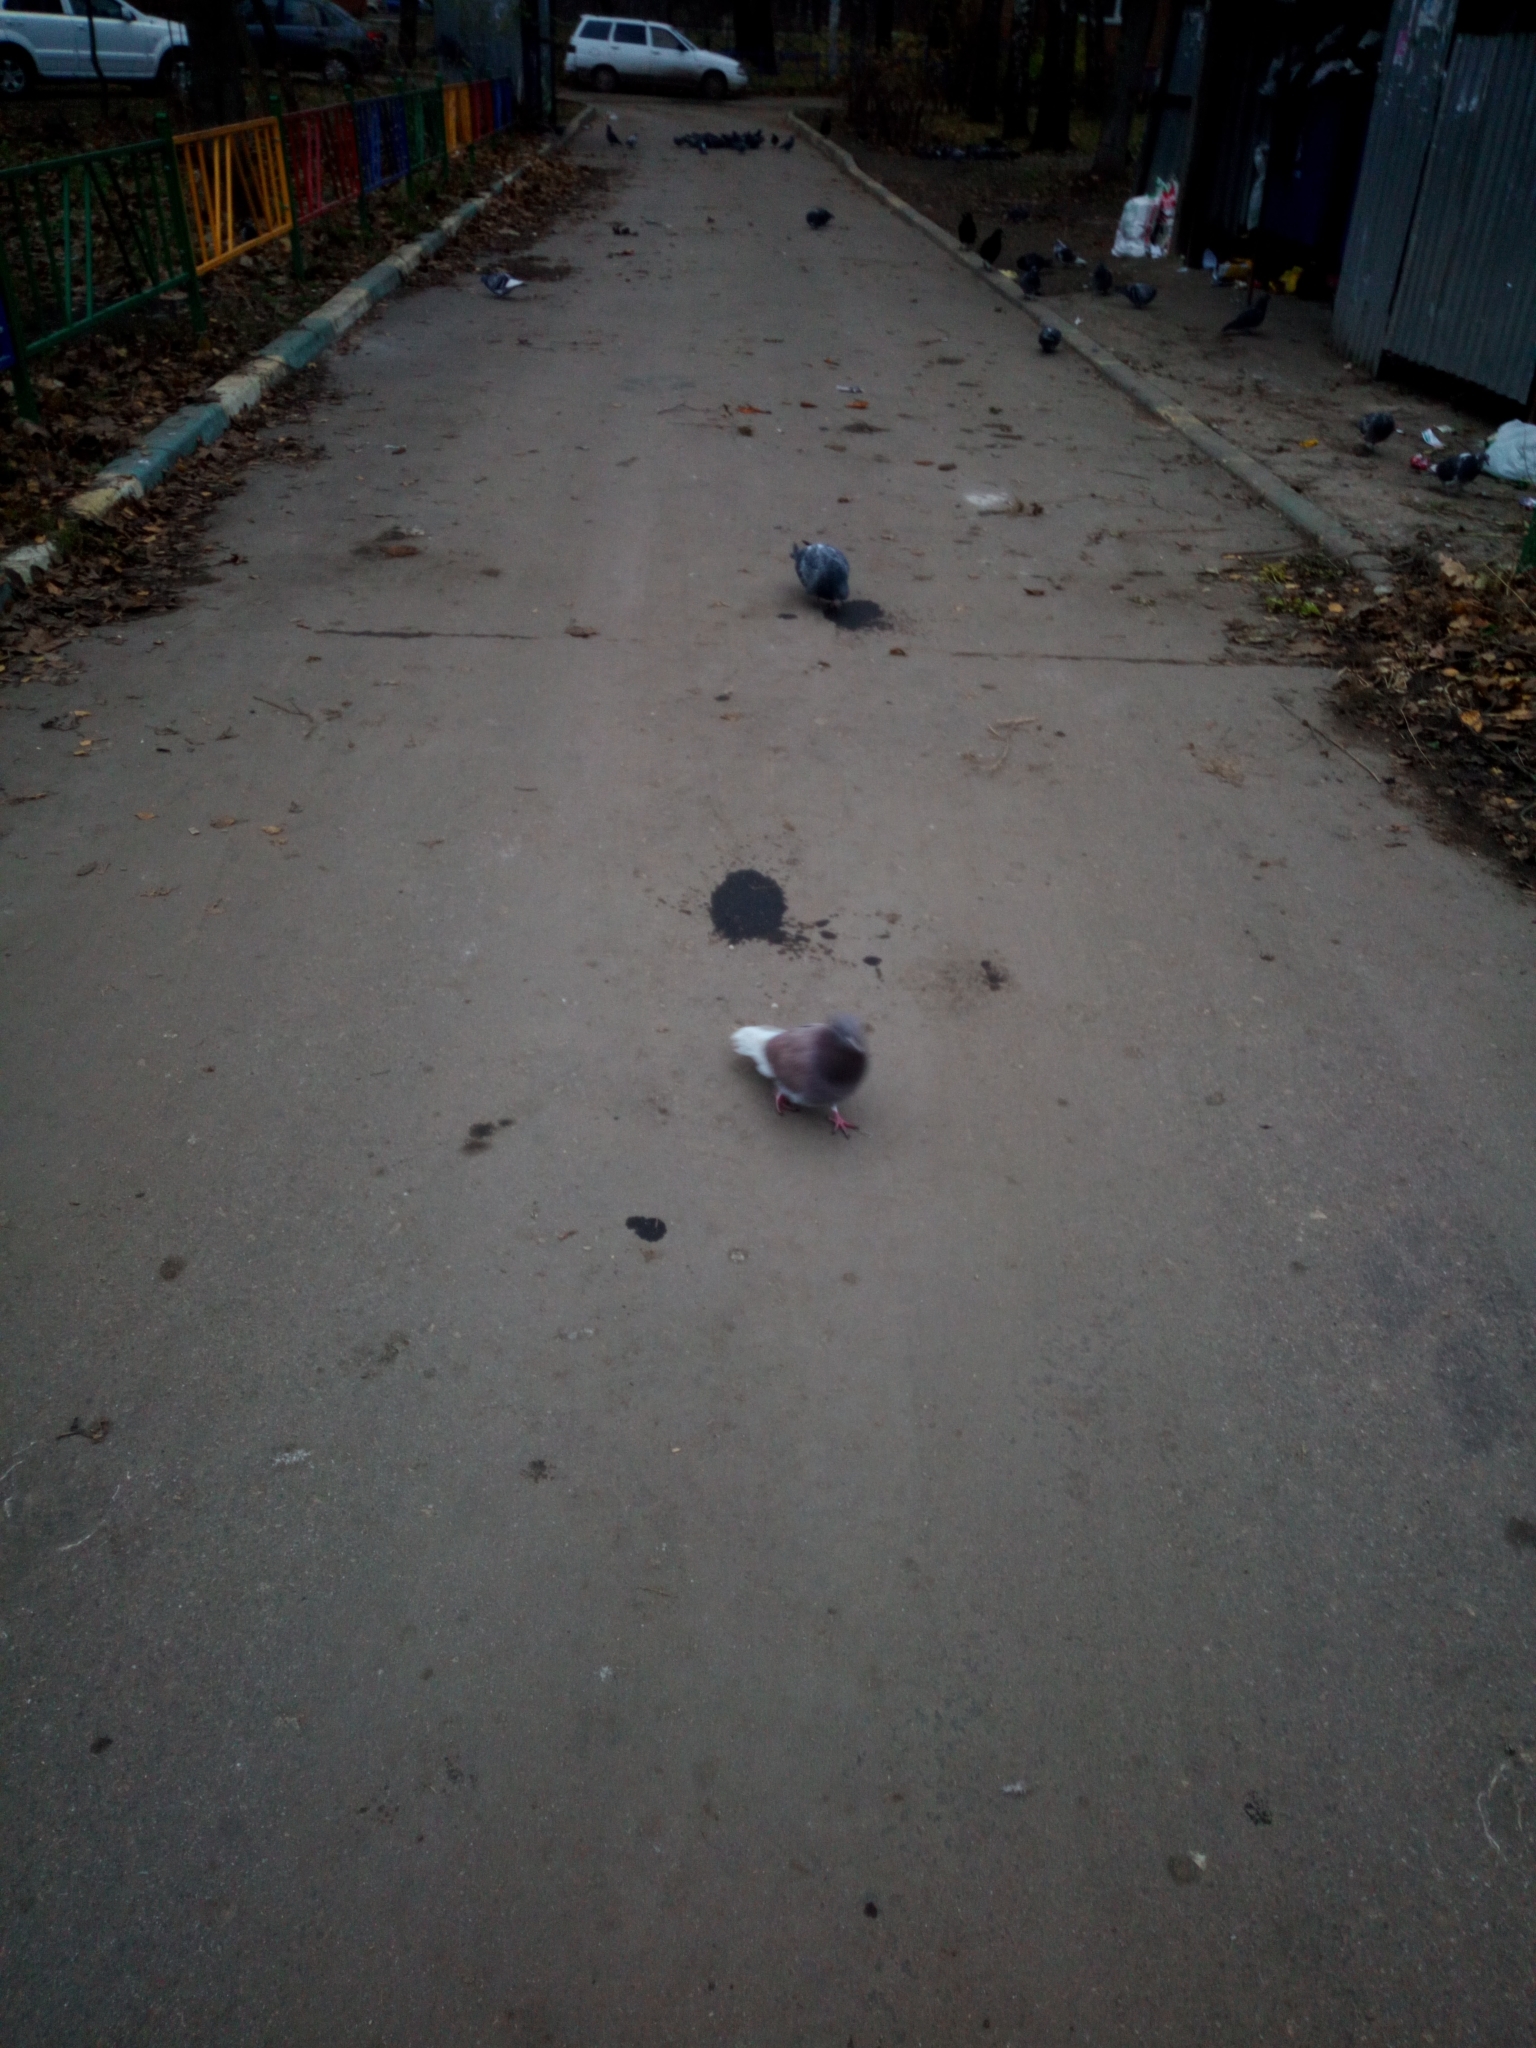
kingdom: Animalia
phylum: Chordata
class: Aves
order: Columbiformes
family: Columbidae
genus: Columba
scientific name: Columba livia
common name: Rock pigeon
